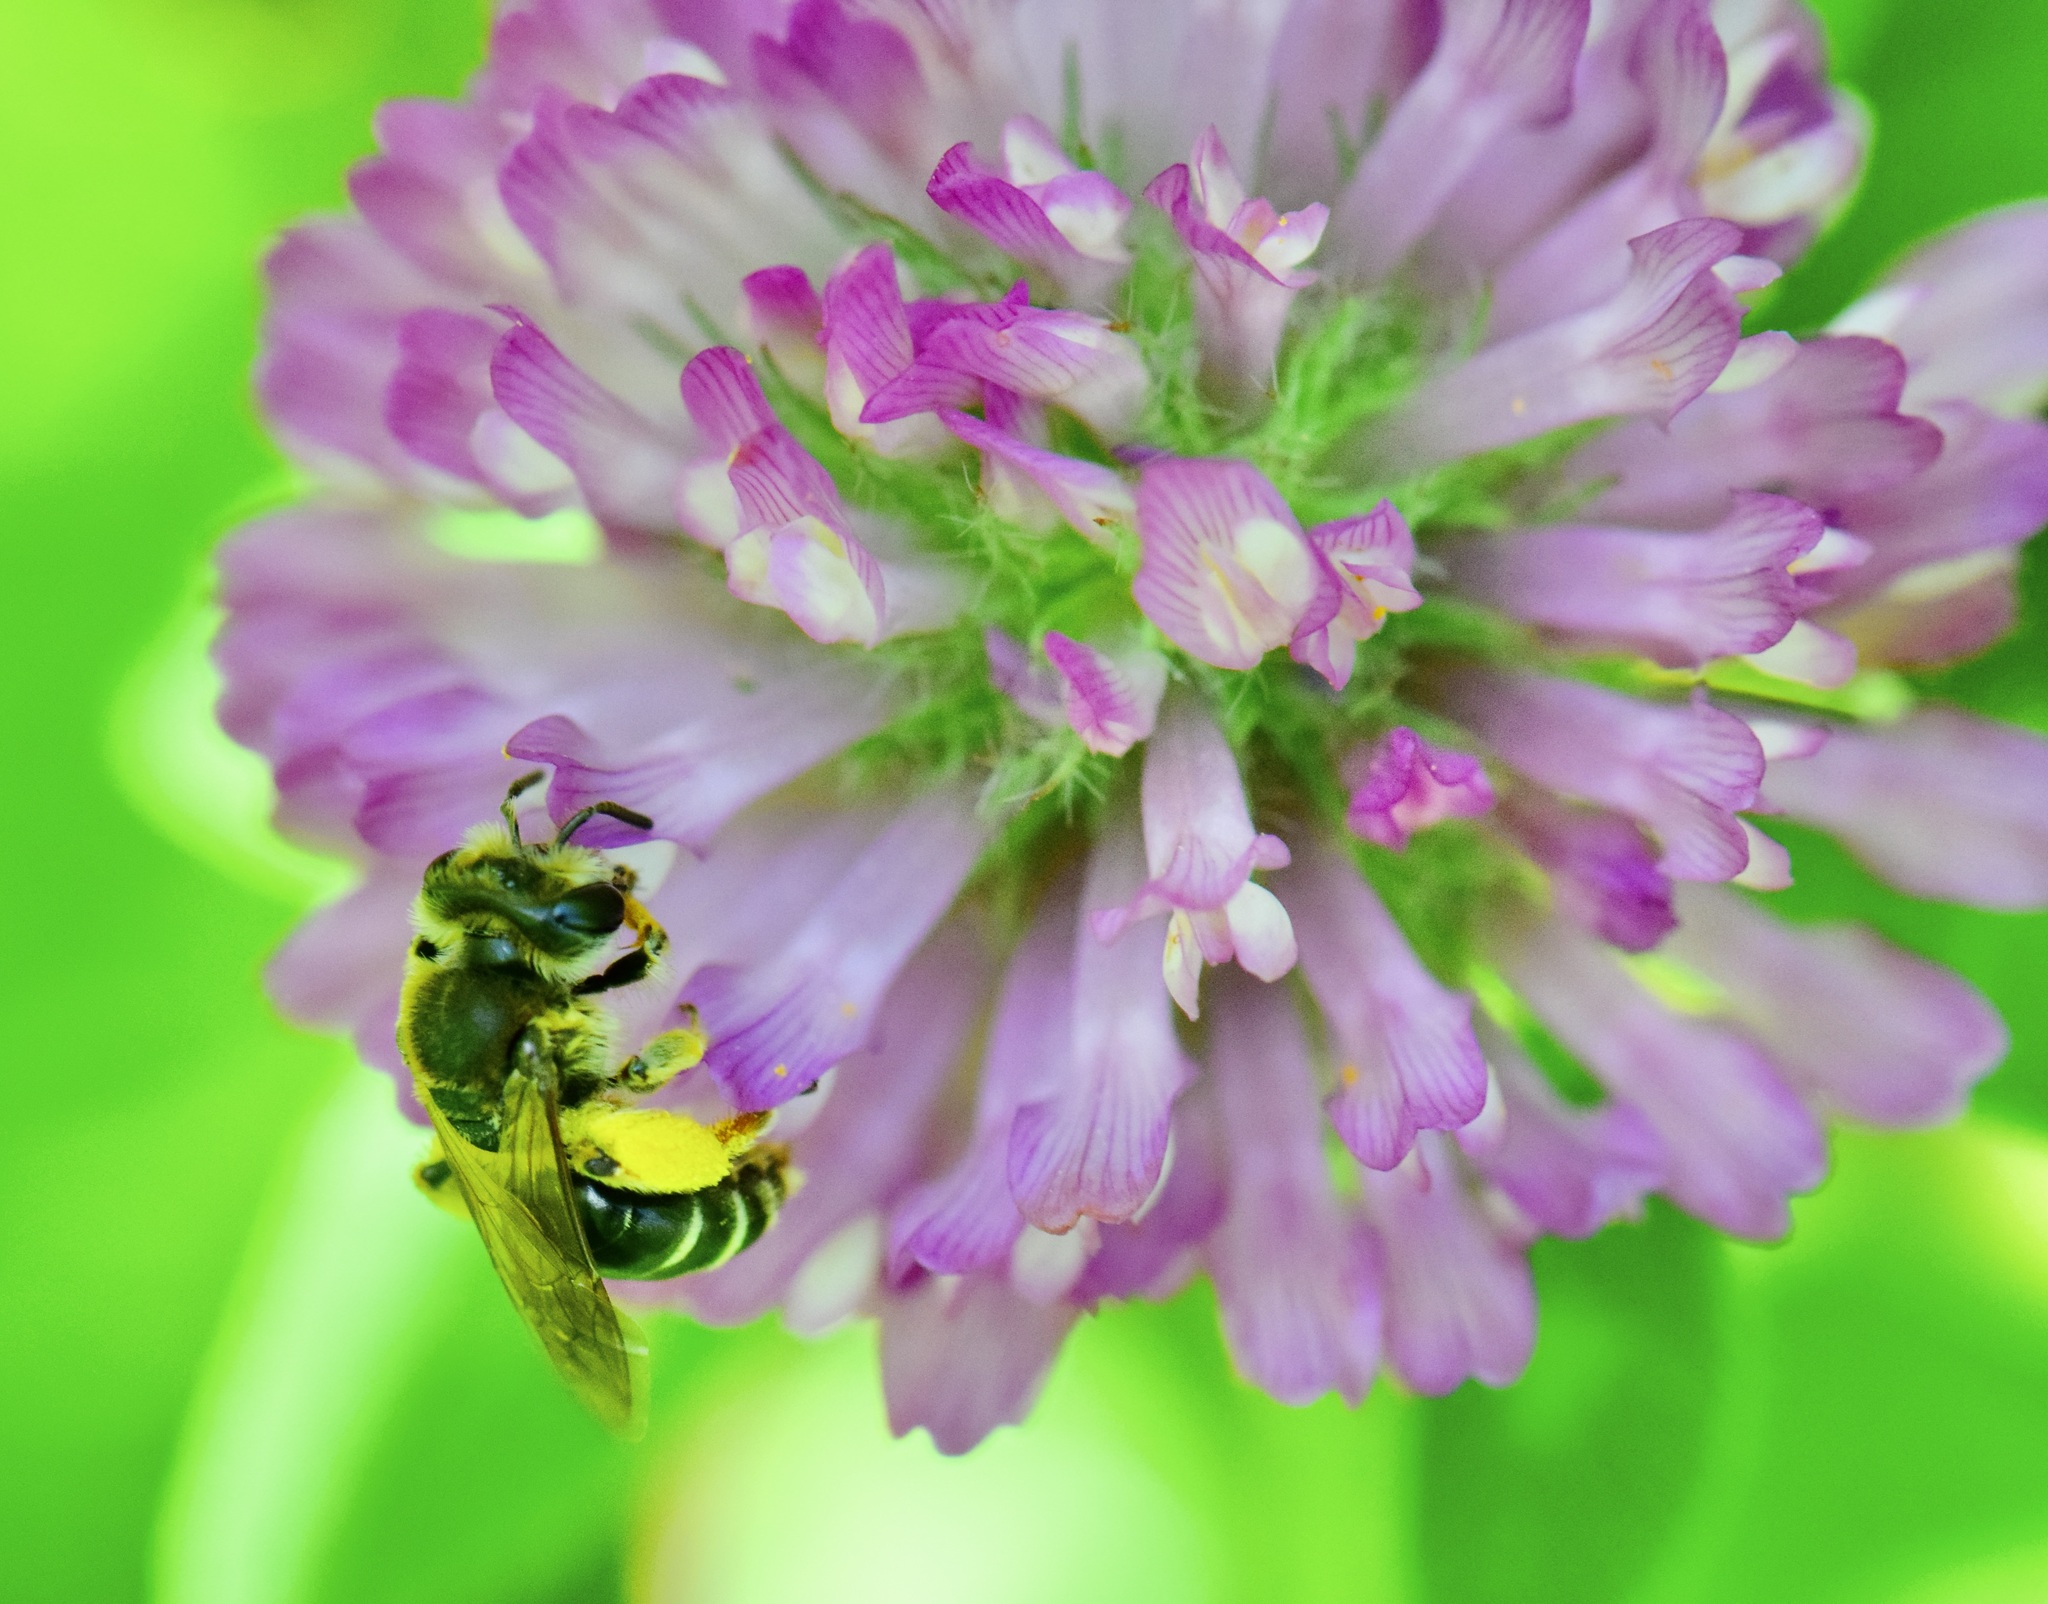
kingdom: Animalia
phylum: Arthropoda
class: Insecta
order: Hymenoptera
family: Andrenidae
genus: Andrena
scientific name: Andrena wilkella
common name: Wilke's mining bee
